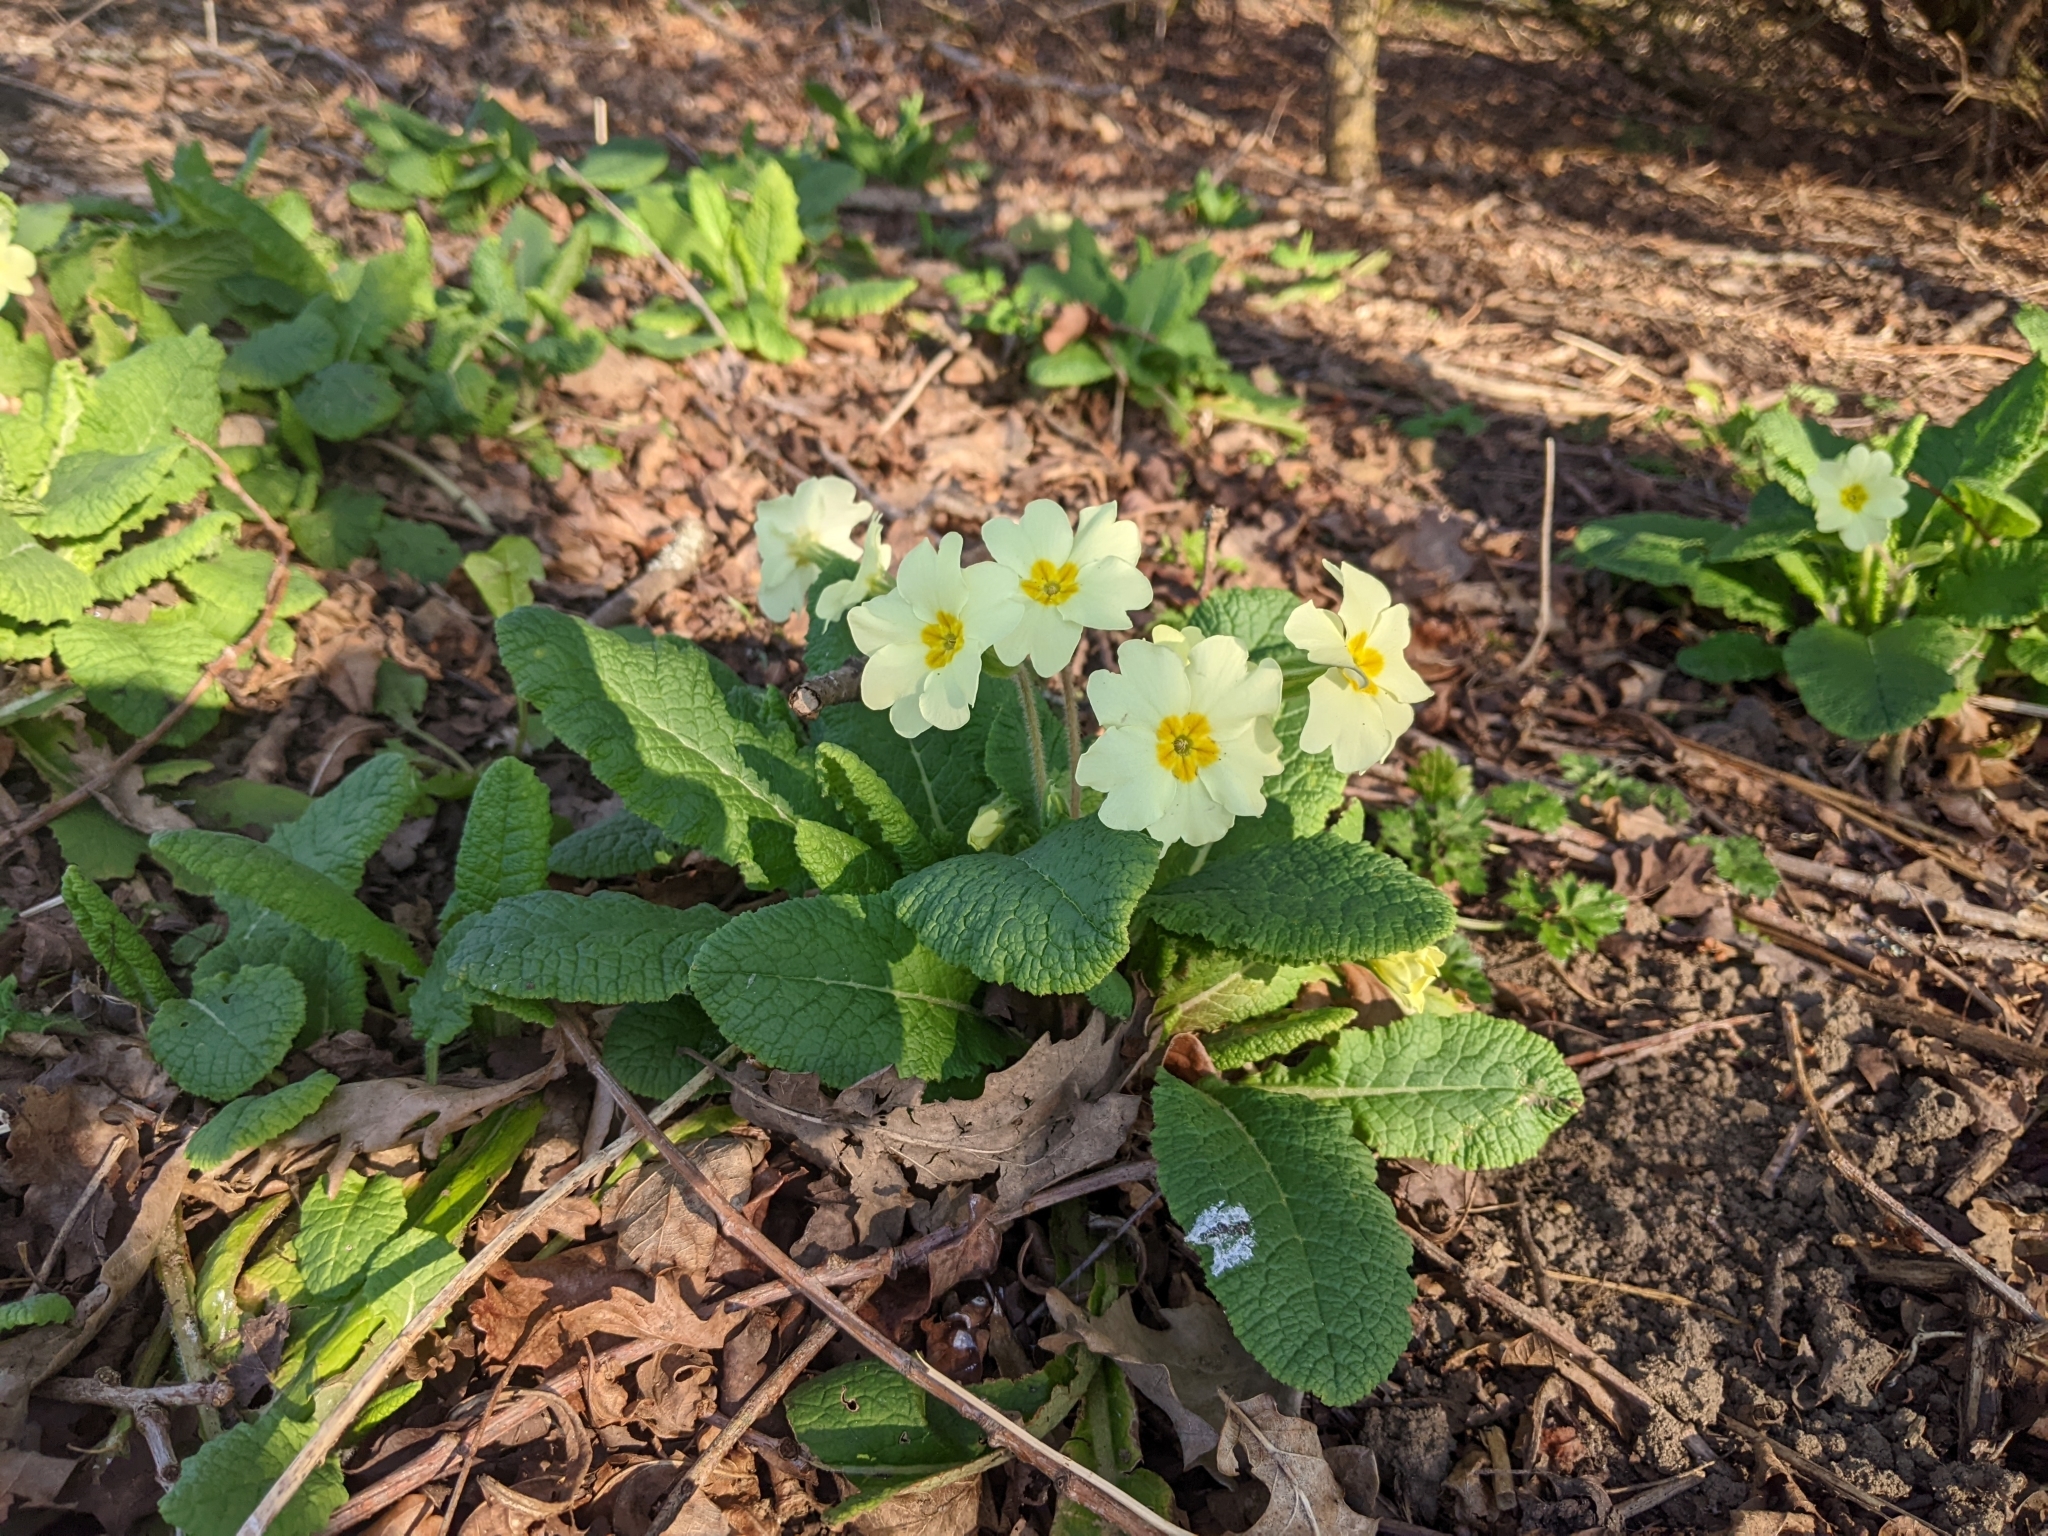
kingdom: Plantae
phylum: Tracheophyta
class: Magnoliopsida
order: Ericales
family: Primulaceae
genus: Primula
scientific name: Primula vulgaris
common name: Primrose
